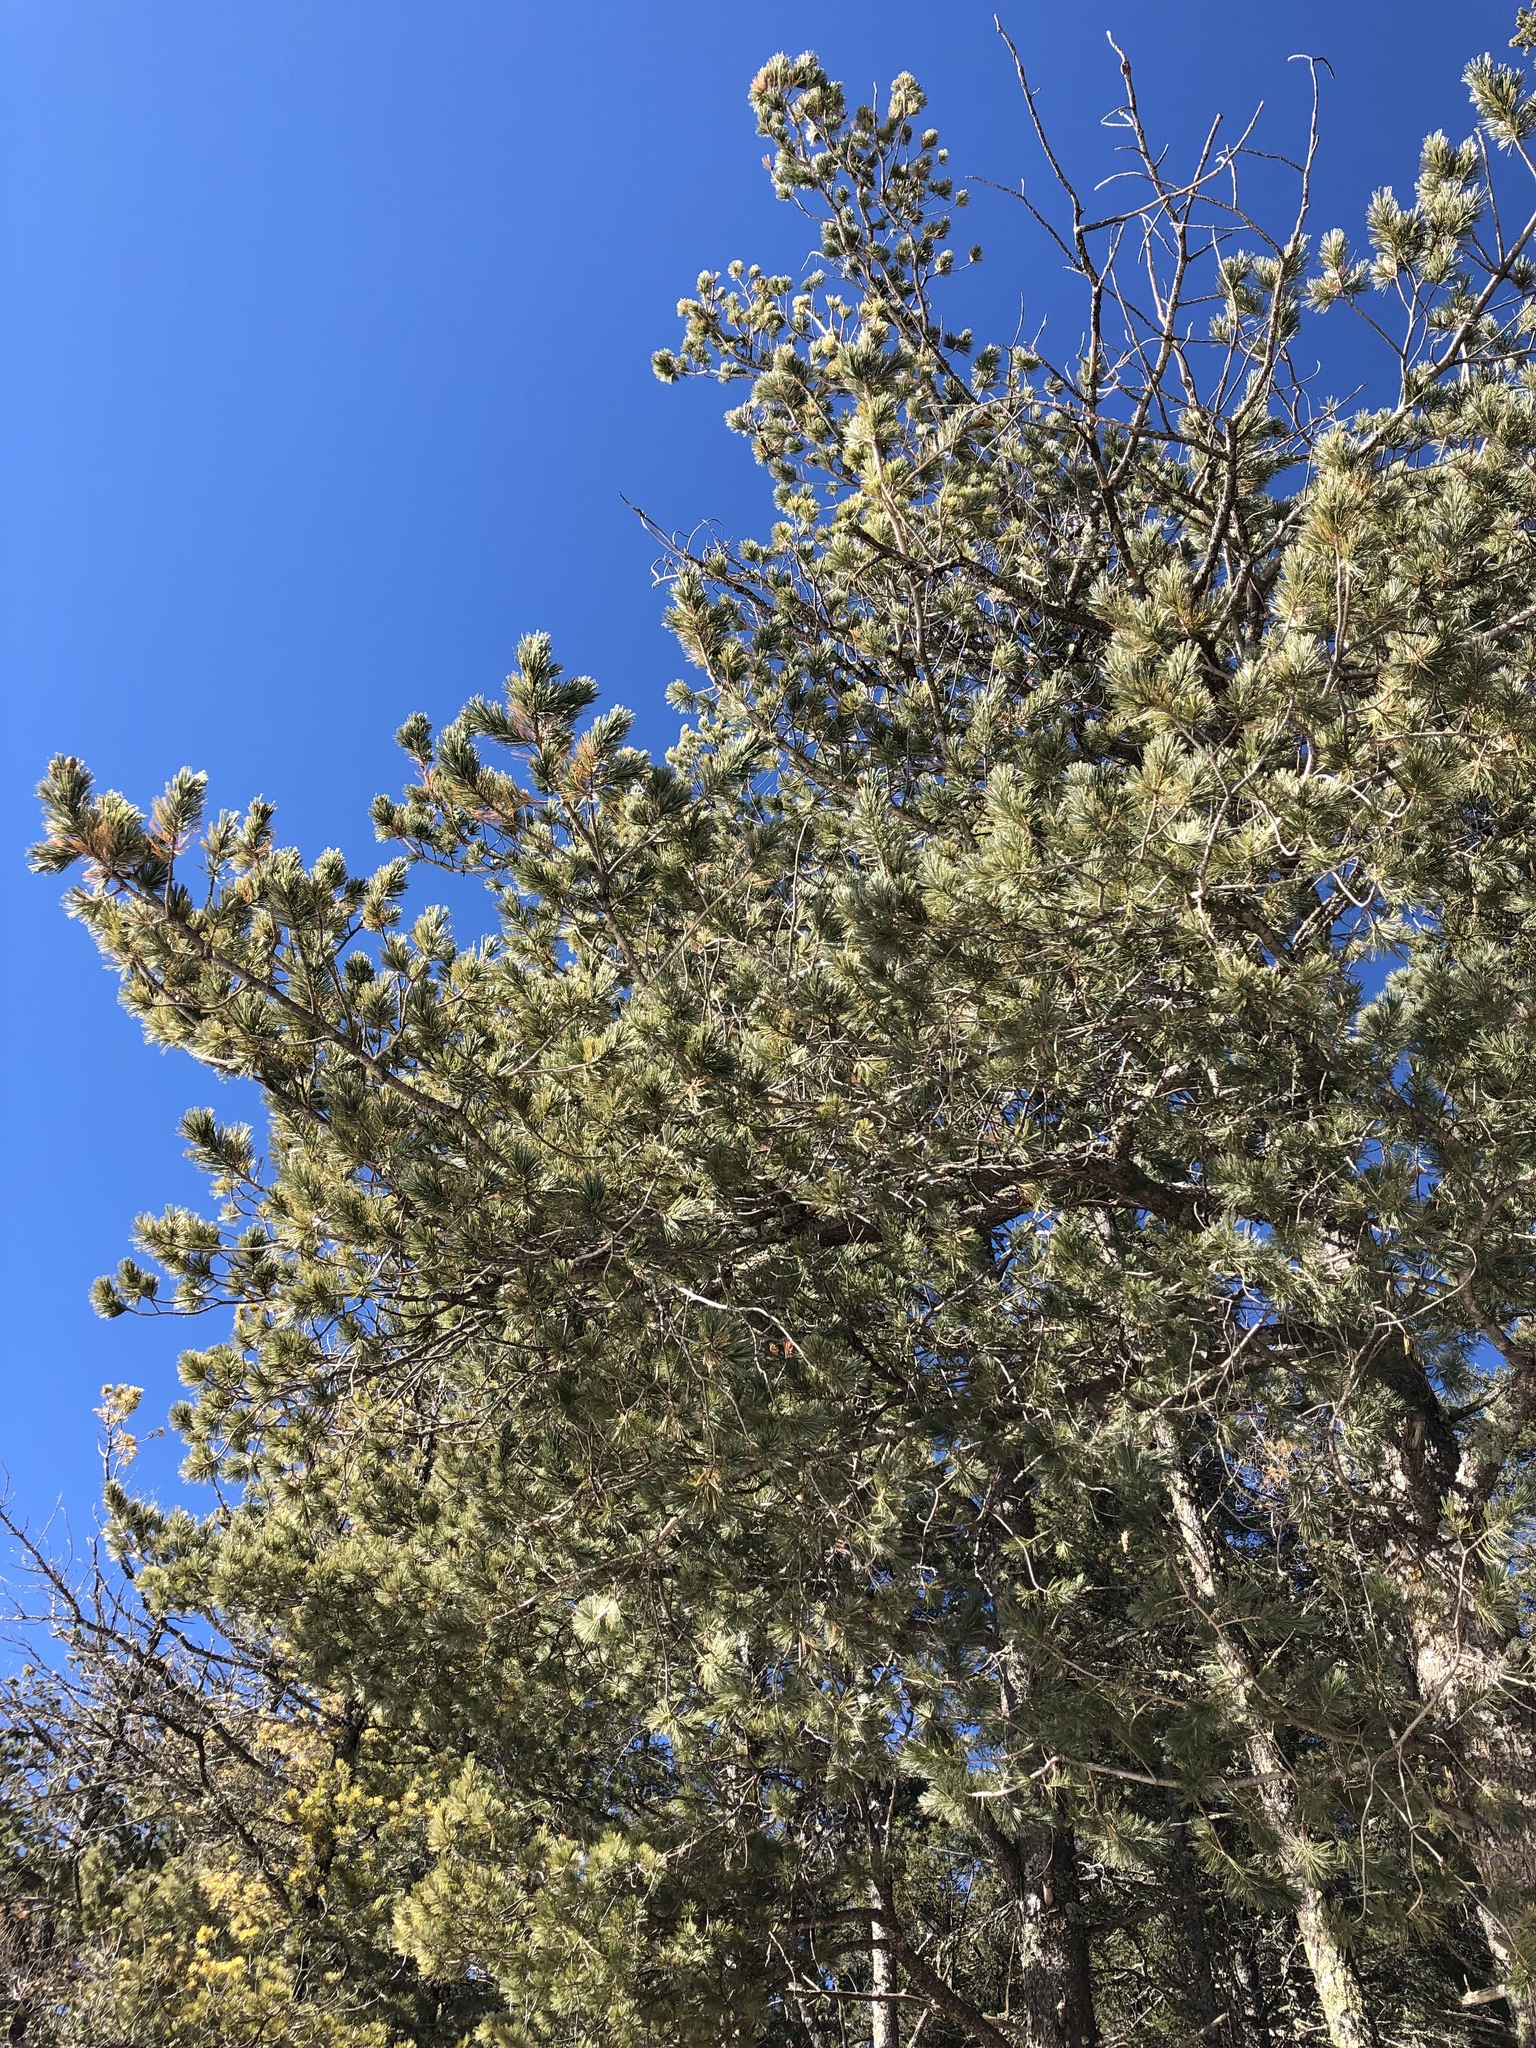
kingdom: Plantae
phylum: Tracheophyta
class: Pinopsida
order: Pinales
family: Pinaceae
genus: Pinus
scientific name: Pinus strobiformis
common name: Southwestern white pine
